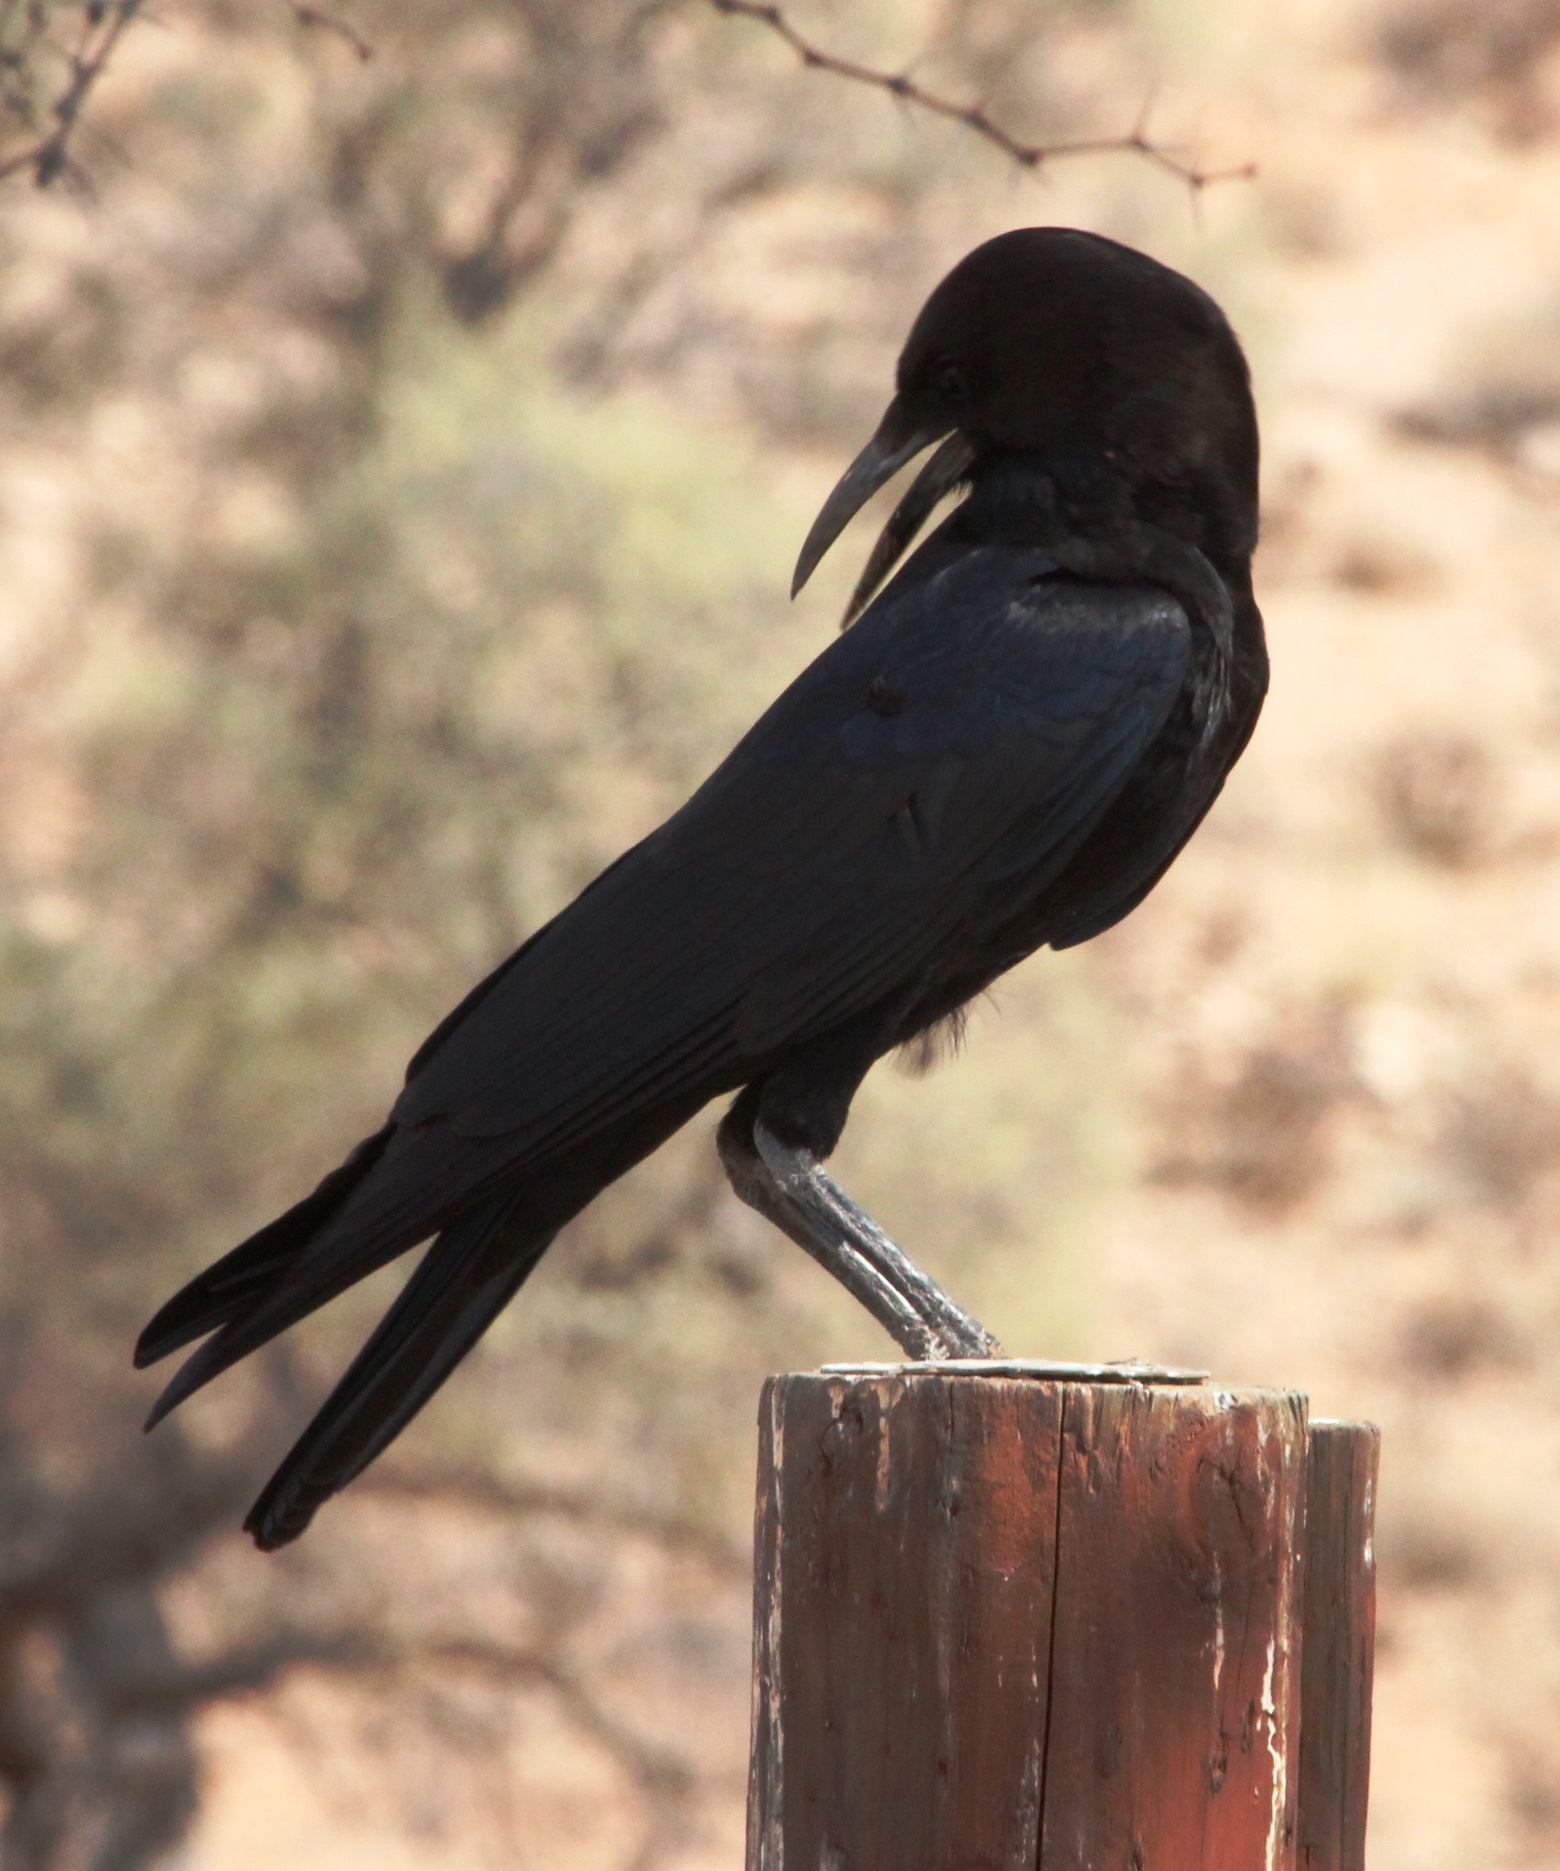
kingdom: Animalia
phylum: Chordata
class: Aves
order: Passeriformes
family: Corvidae
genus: Corvus
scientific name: Corvus capensis
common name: Cape crow
